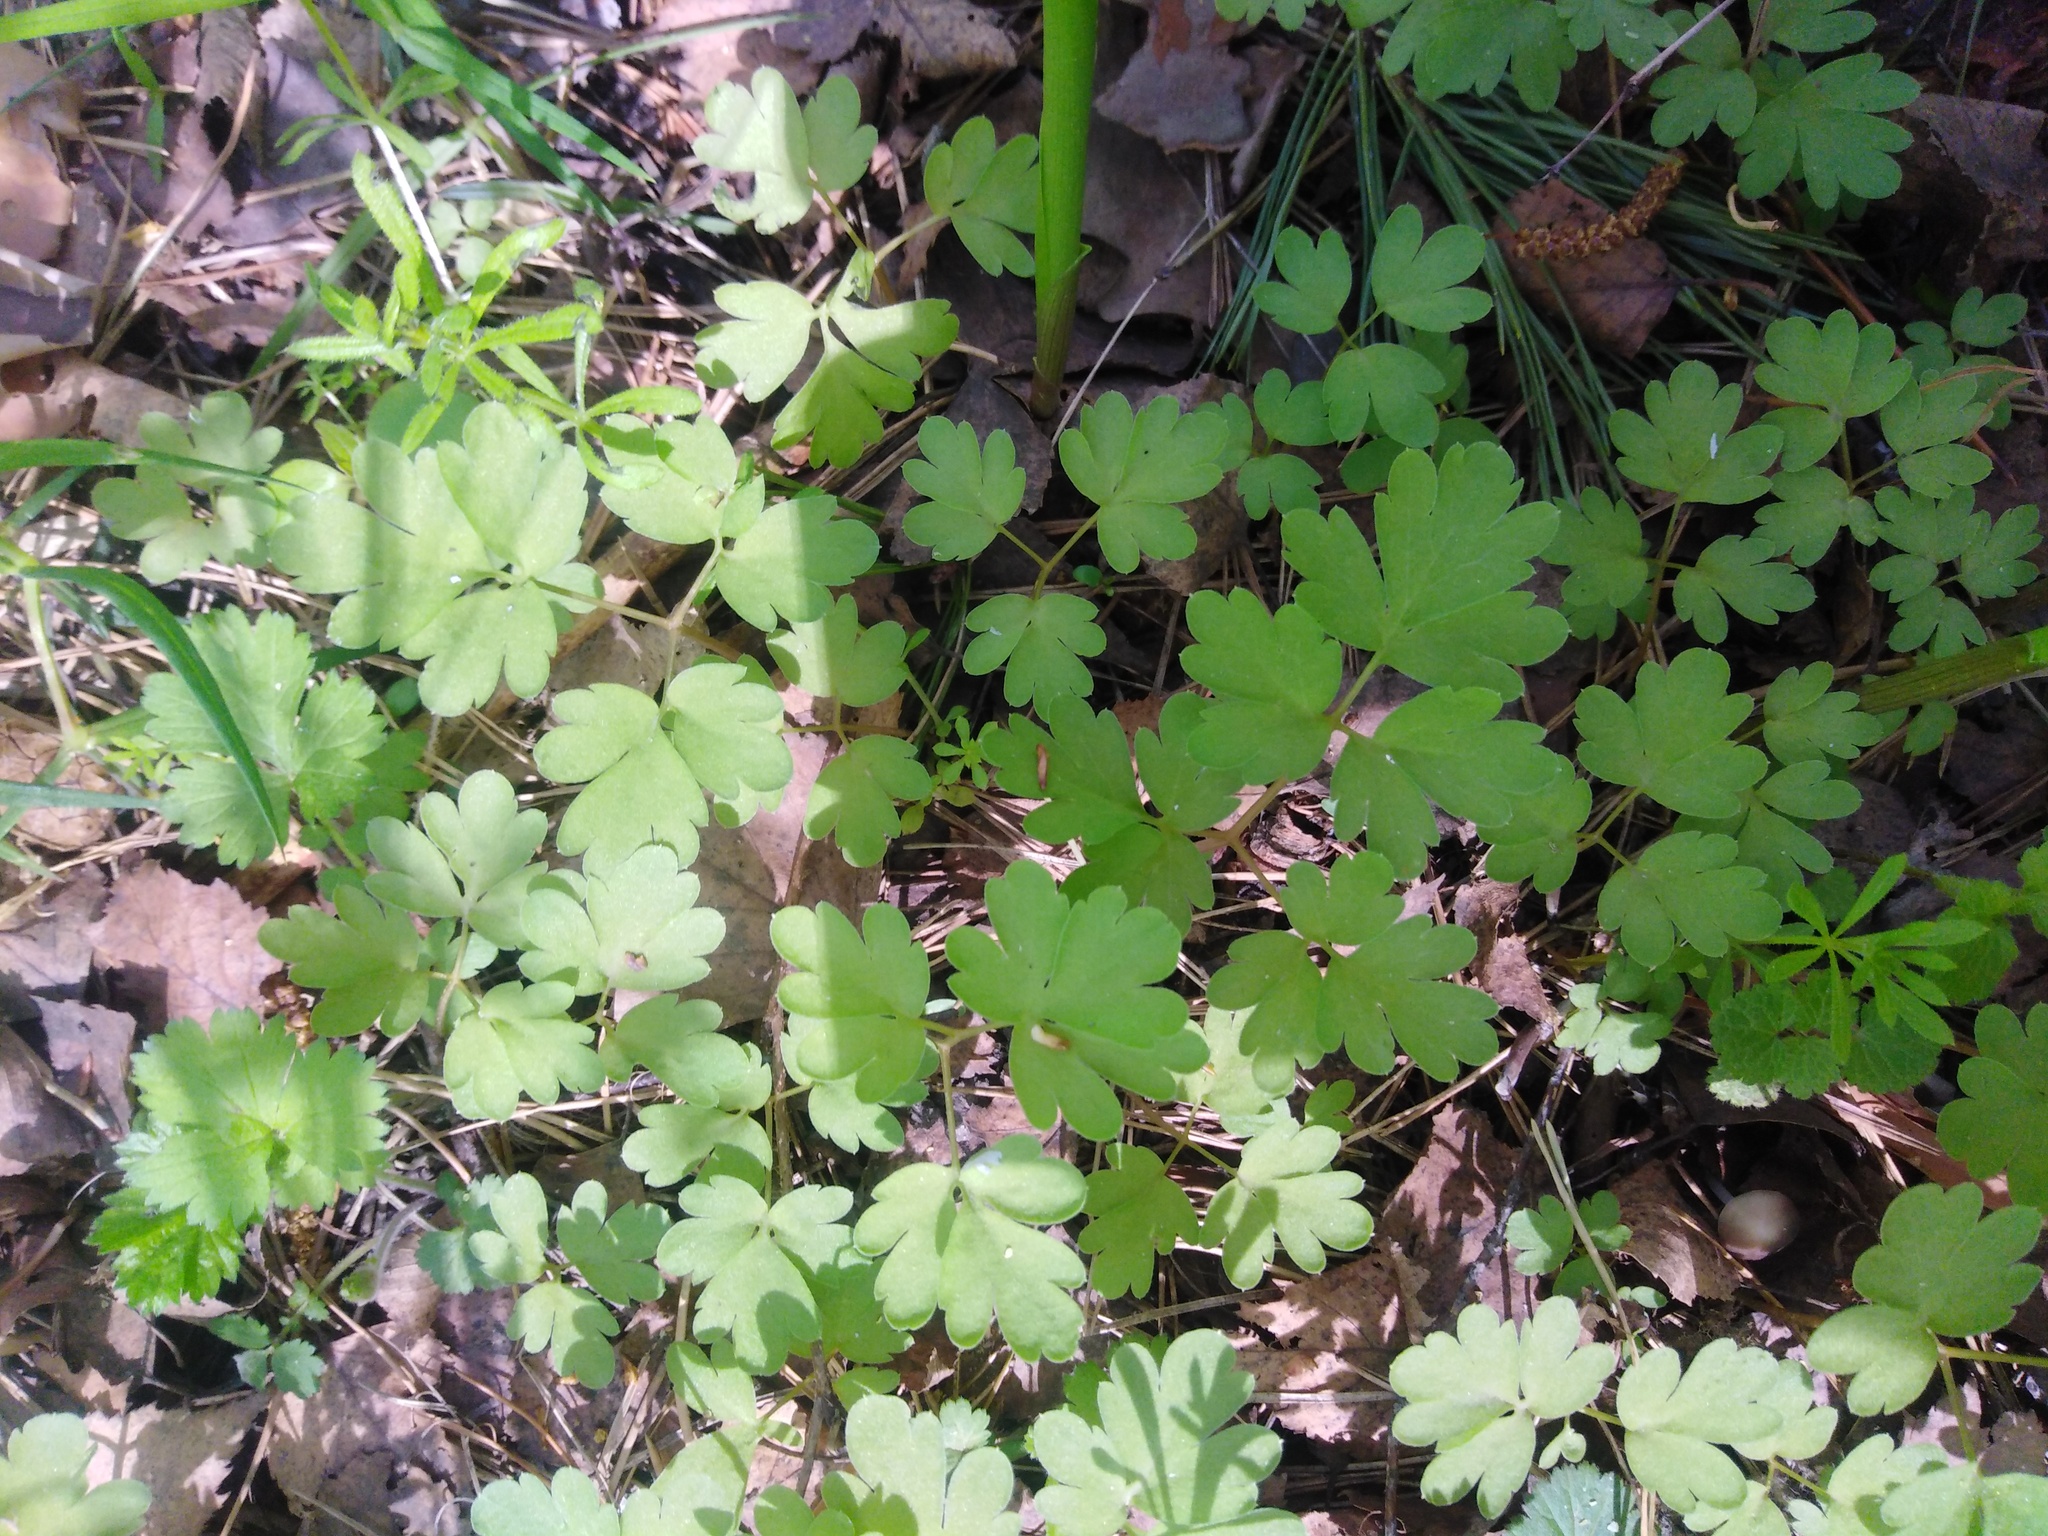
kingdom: Plantae
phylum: Tracheophyta
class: Magnoliopsida
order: Dipsacales
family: Viburnaceae
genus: Adoxa
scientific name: Adoxa moschatellina
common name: Moschatel
